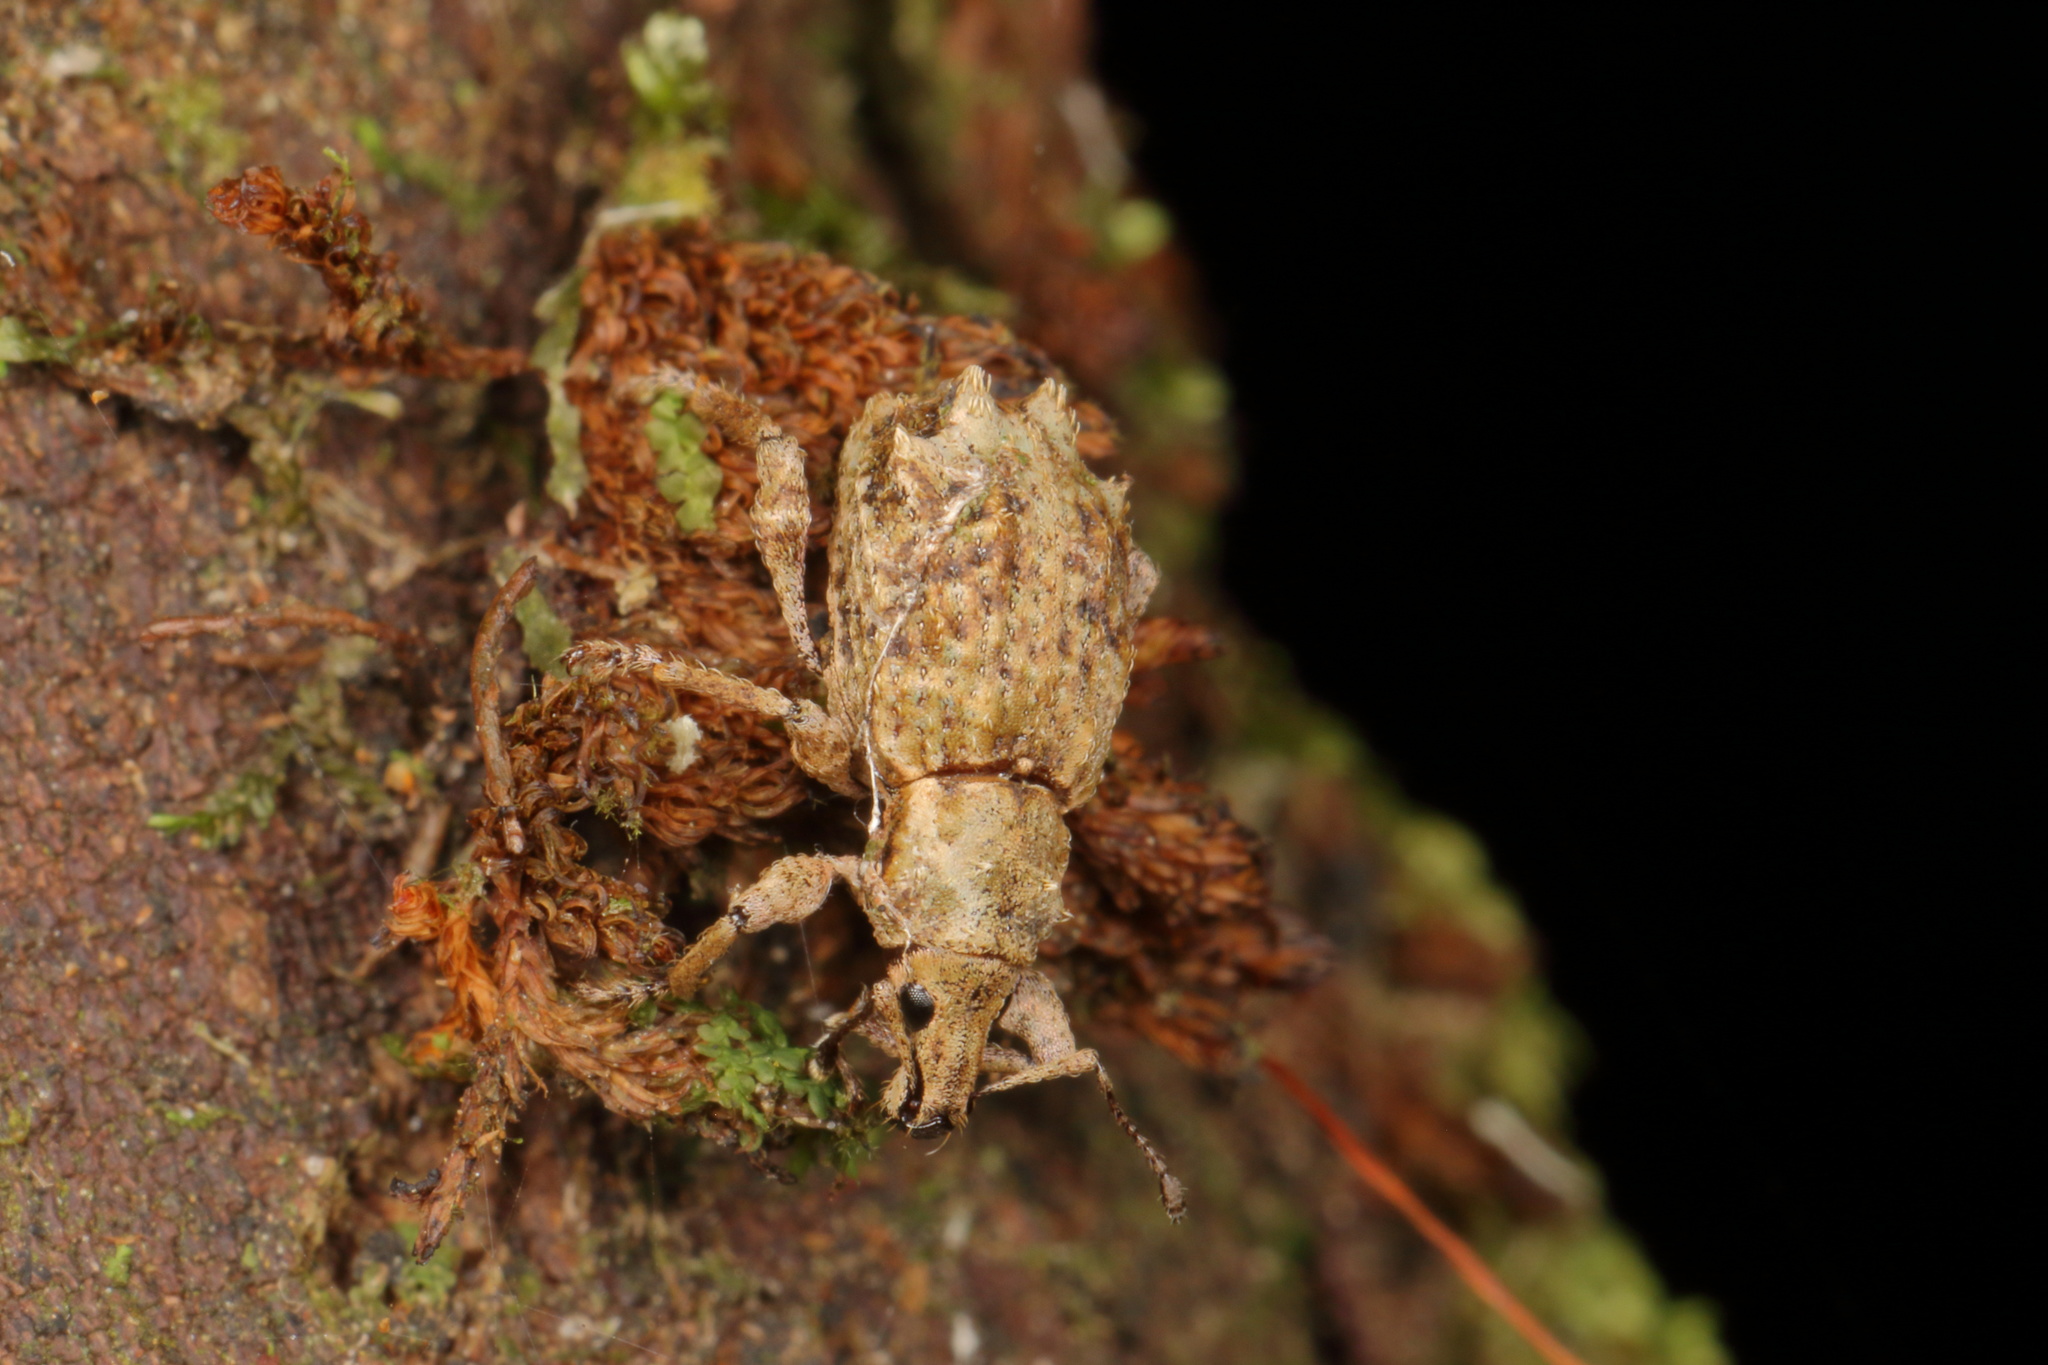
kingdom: Animalia
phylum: Arthropoda
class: Insecta
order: Coleoptera
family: Curculionidae
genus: Catoptes
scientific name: Catoptes coronatus
